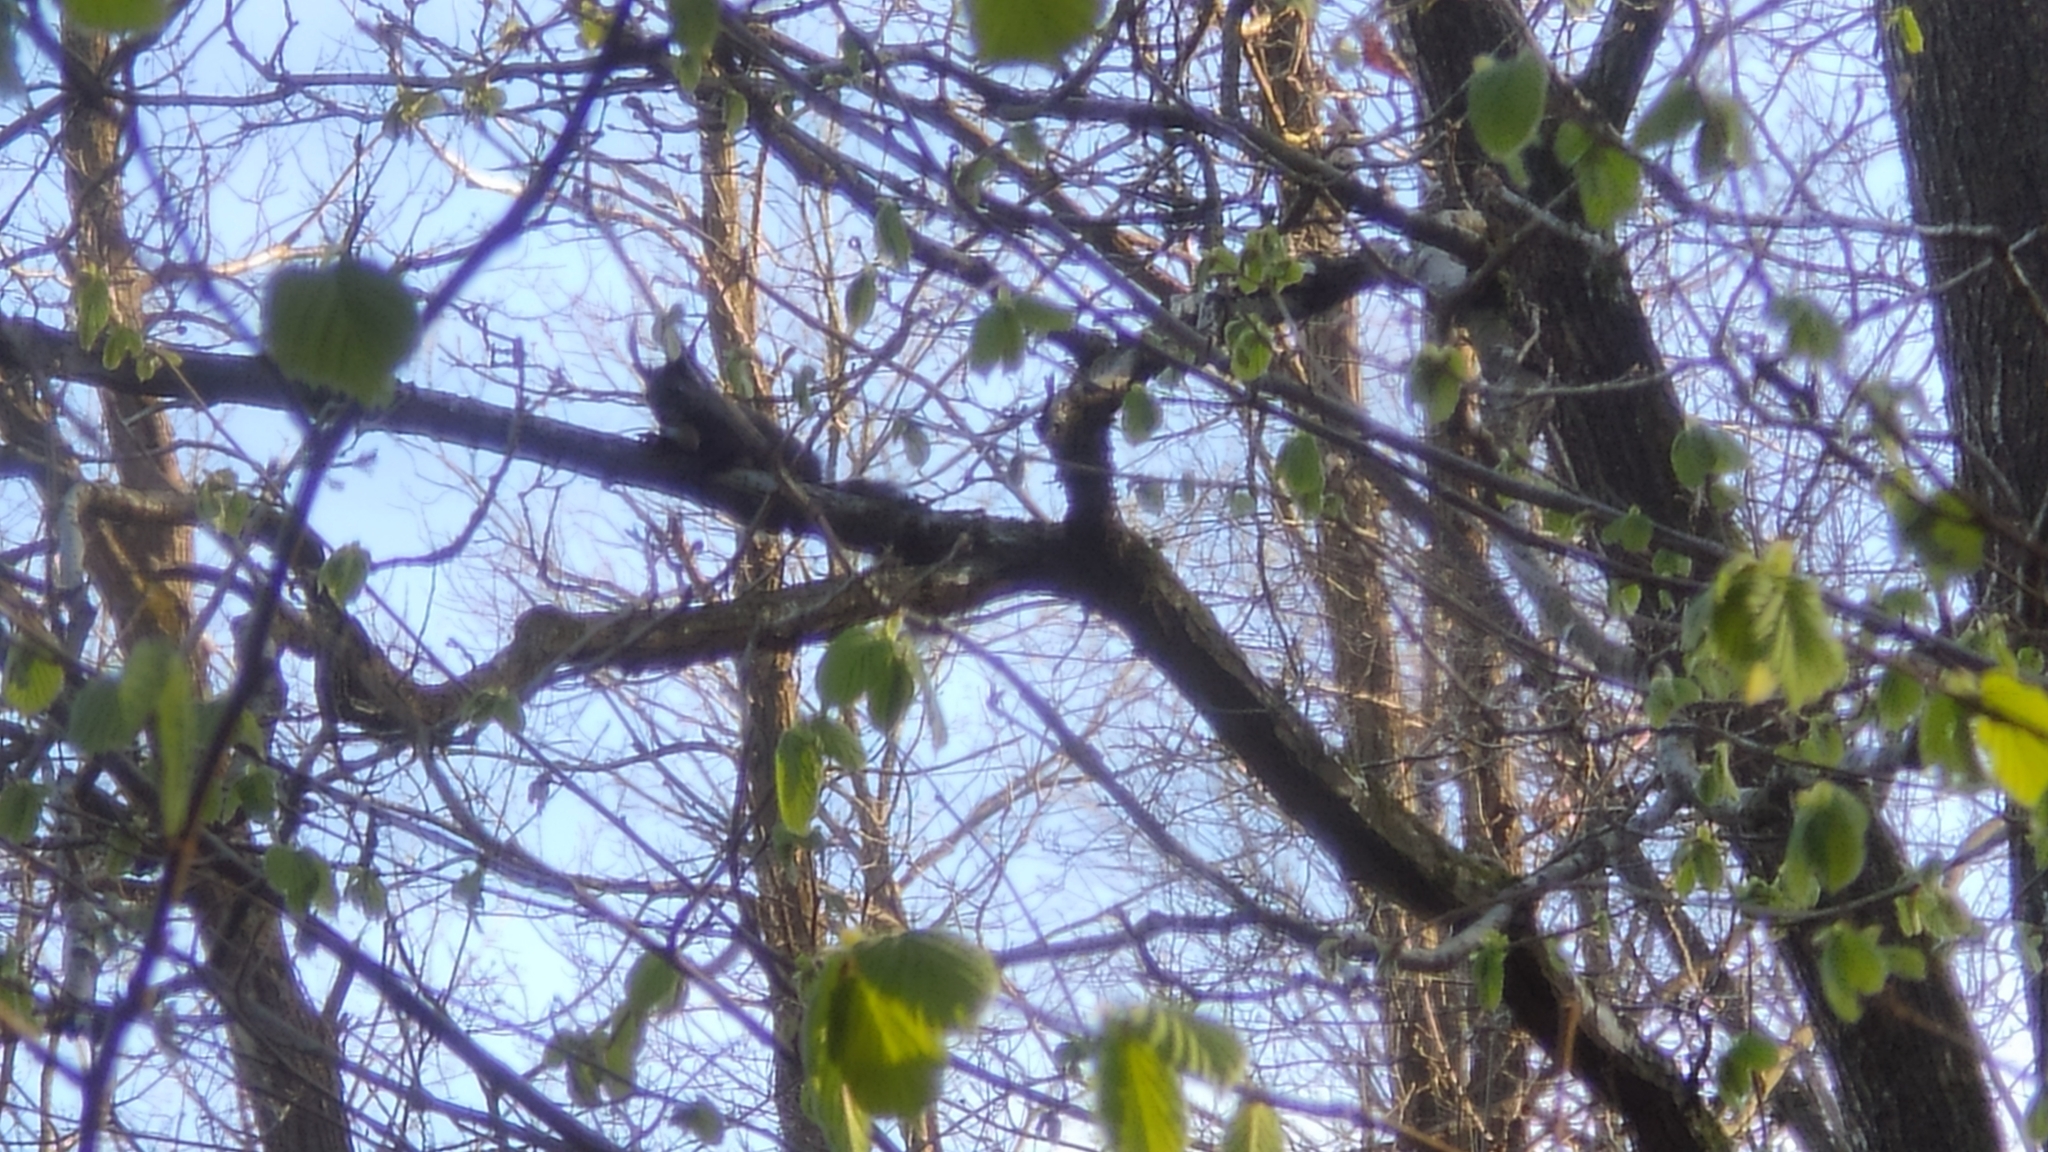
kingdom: Animalia
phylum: Chordata
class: Mammalia
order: Rodentia
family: Sciuridae
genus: Sciurus
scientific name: Sciurus vulgaris
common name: Eurasian red squirrel
